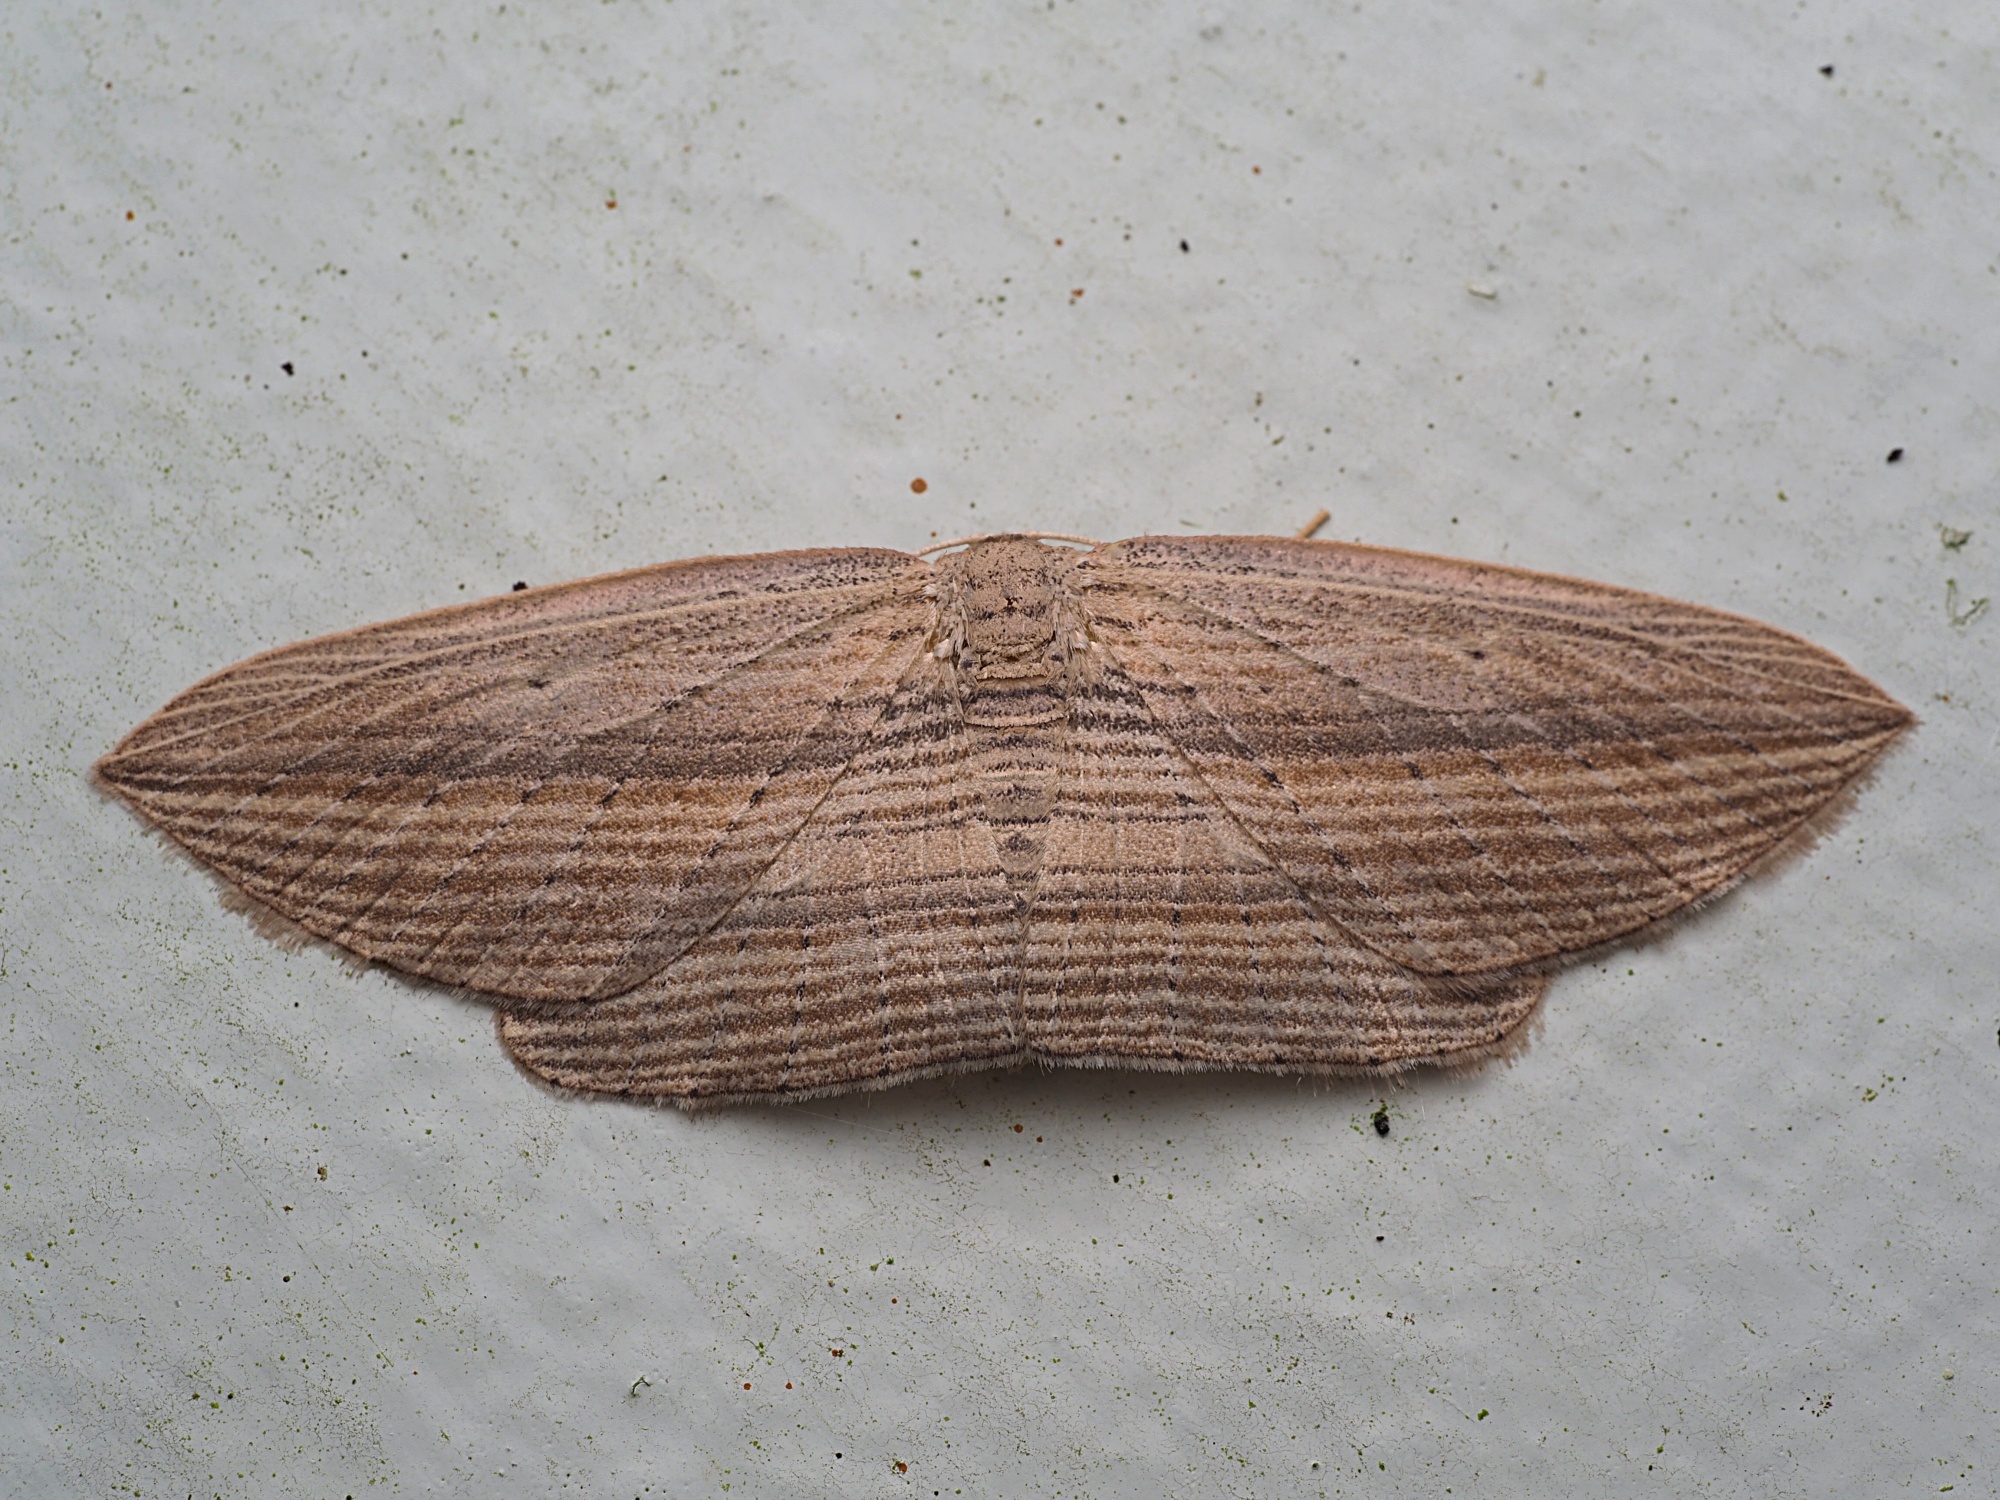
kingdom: Animalia
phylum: Arthropoda
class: Insecta
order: Lepidoptera
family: Geometridae
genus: Epiphryne
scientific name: Epiphryne verriculata
